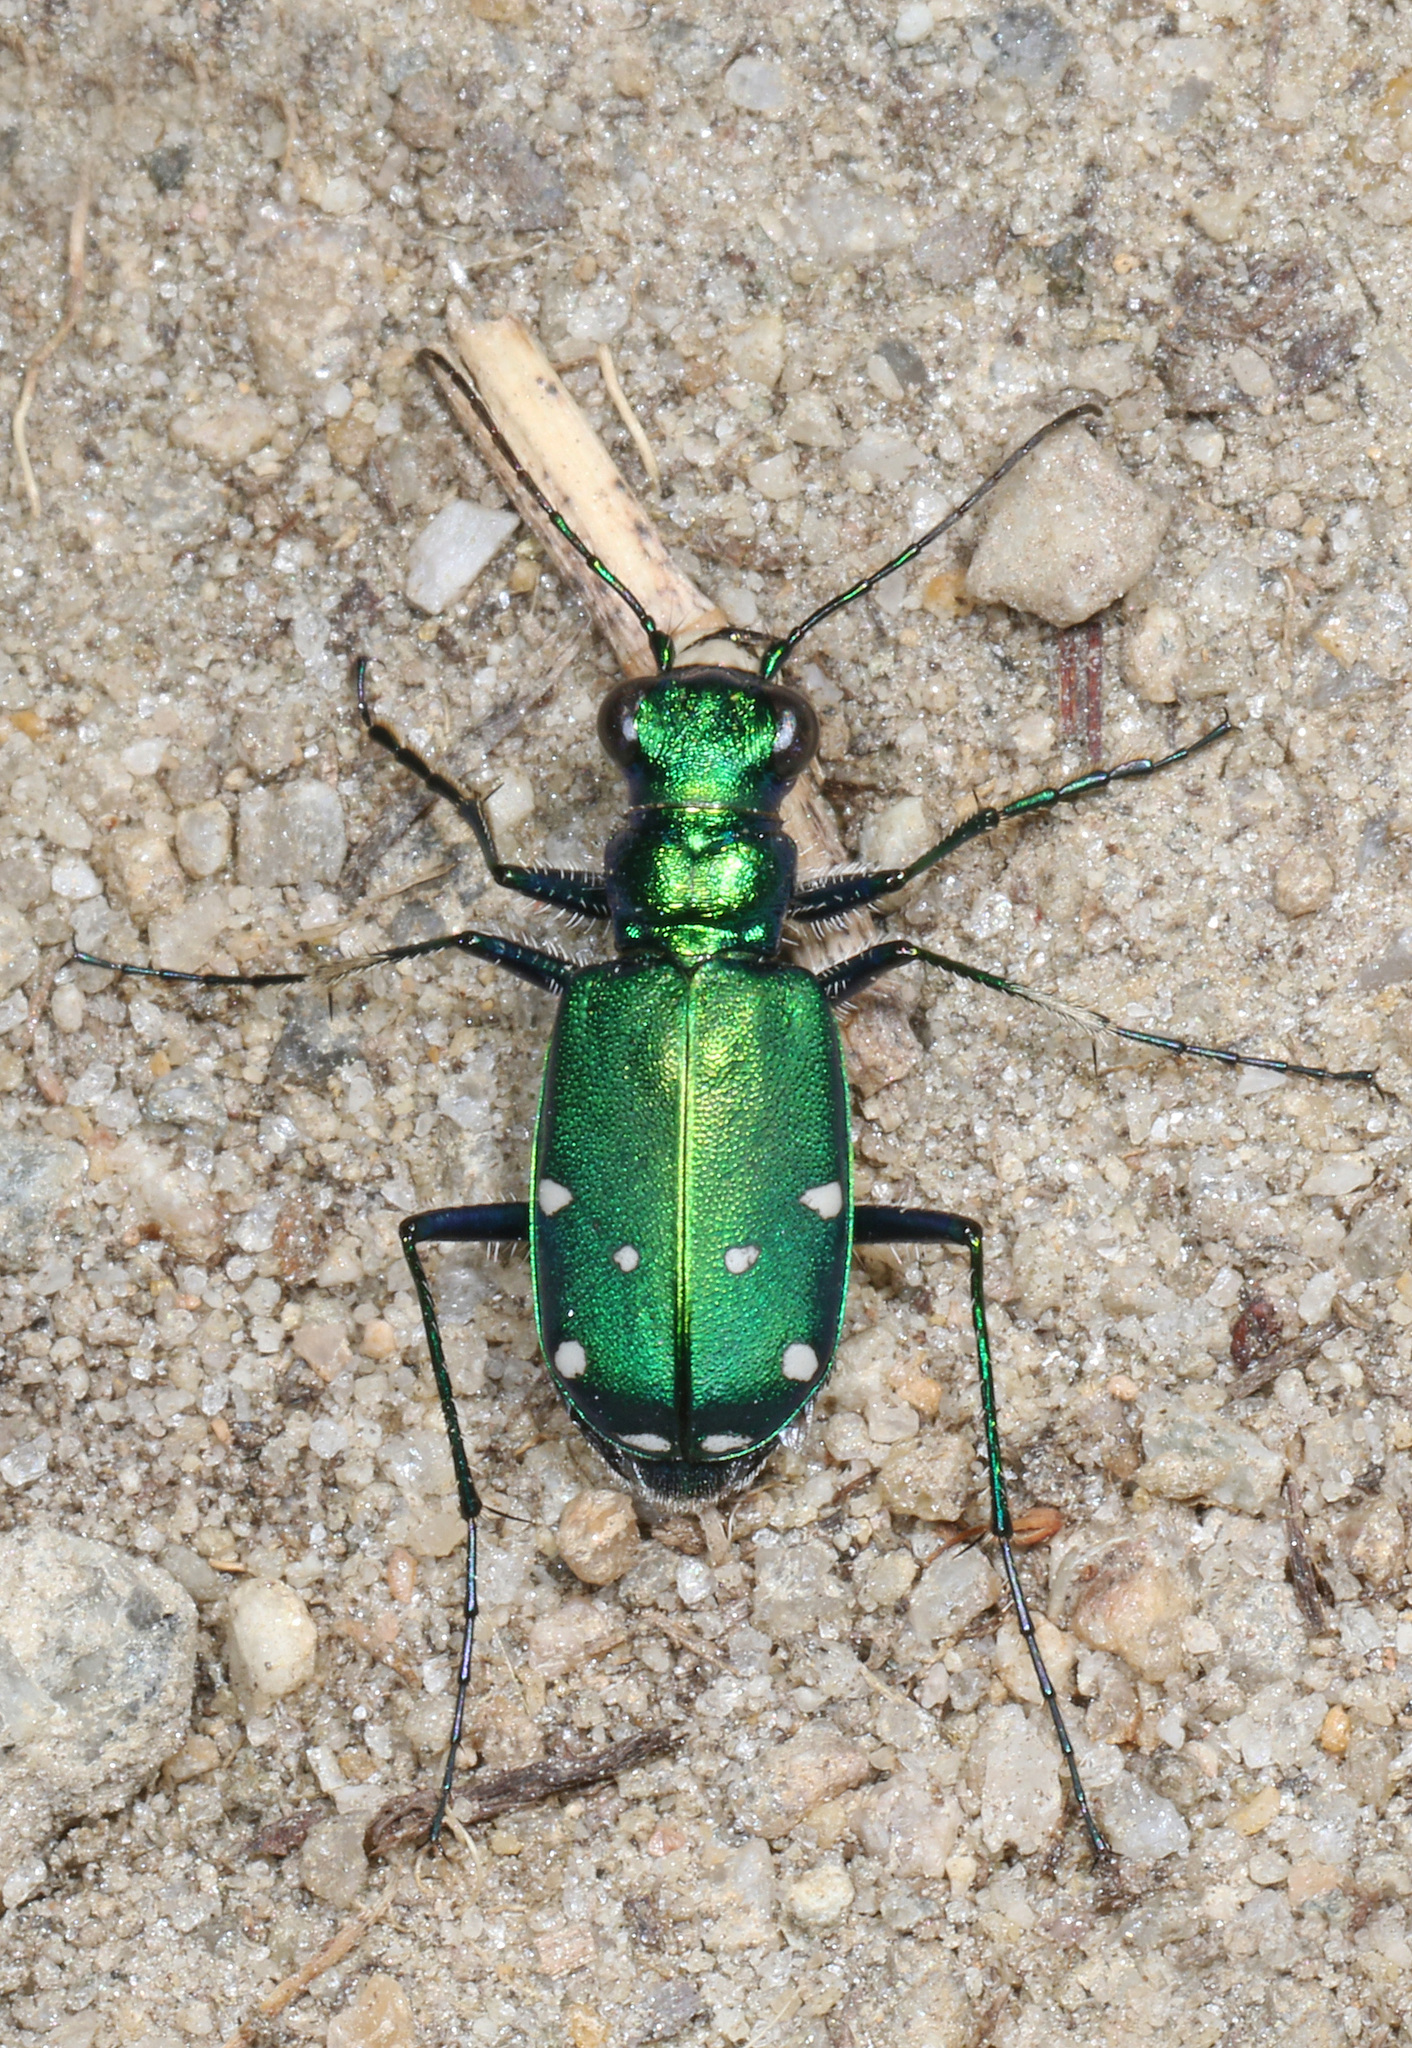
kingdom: Animalia
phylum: Arthropoda
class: Insecta
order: Coleoptera
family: Carabidae
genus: Cicindela
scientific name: Cicindela sexguttata
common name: Six-spotted tiger beetle
